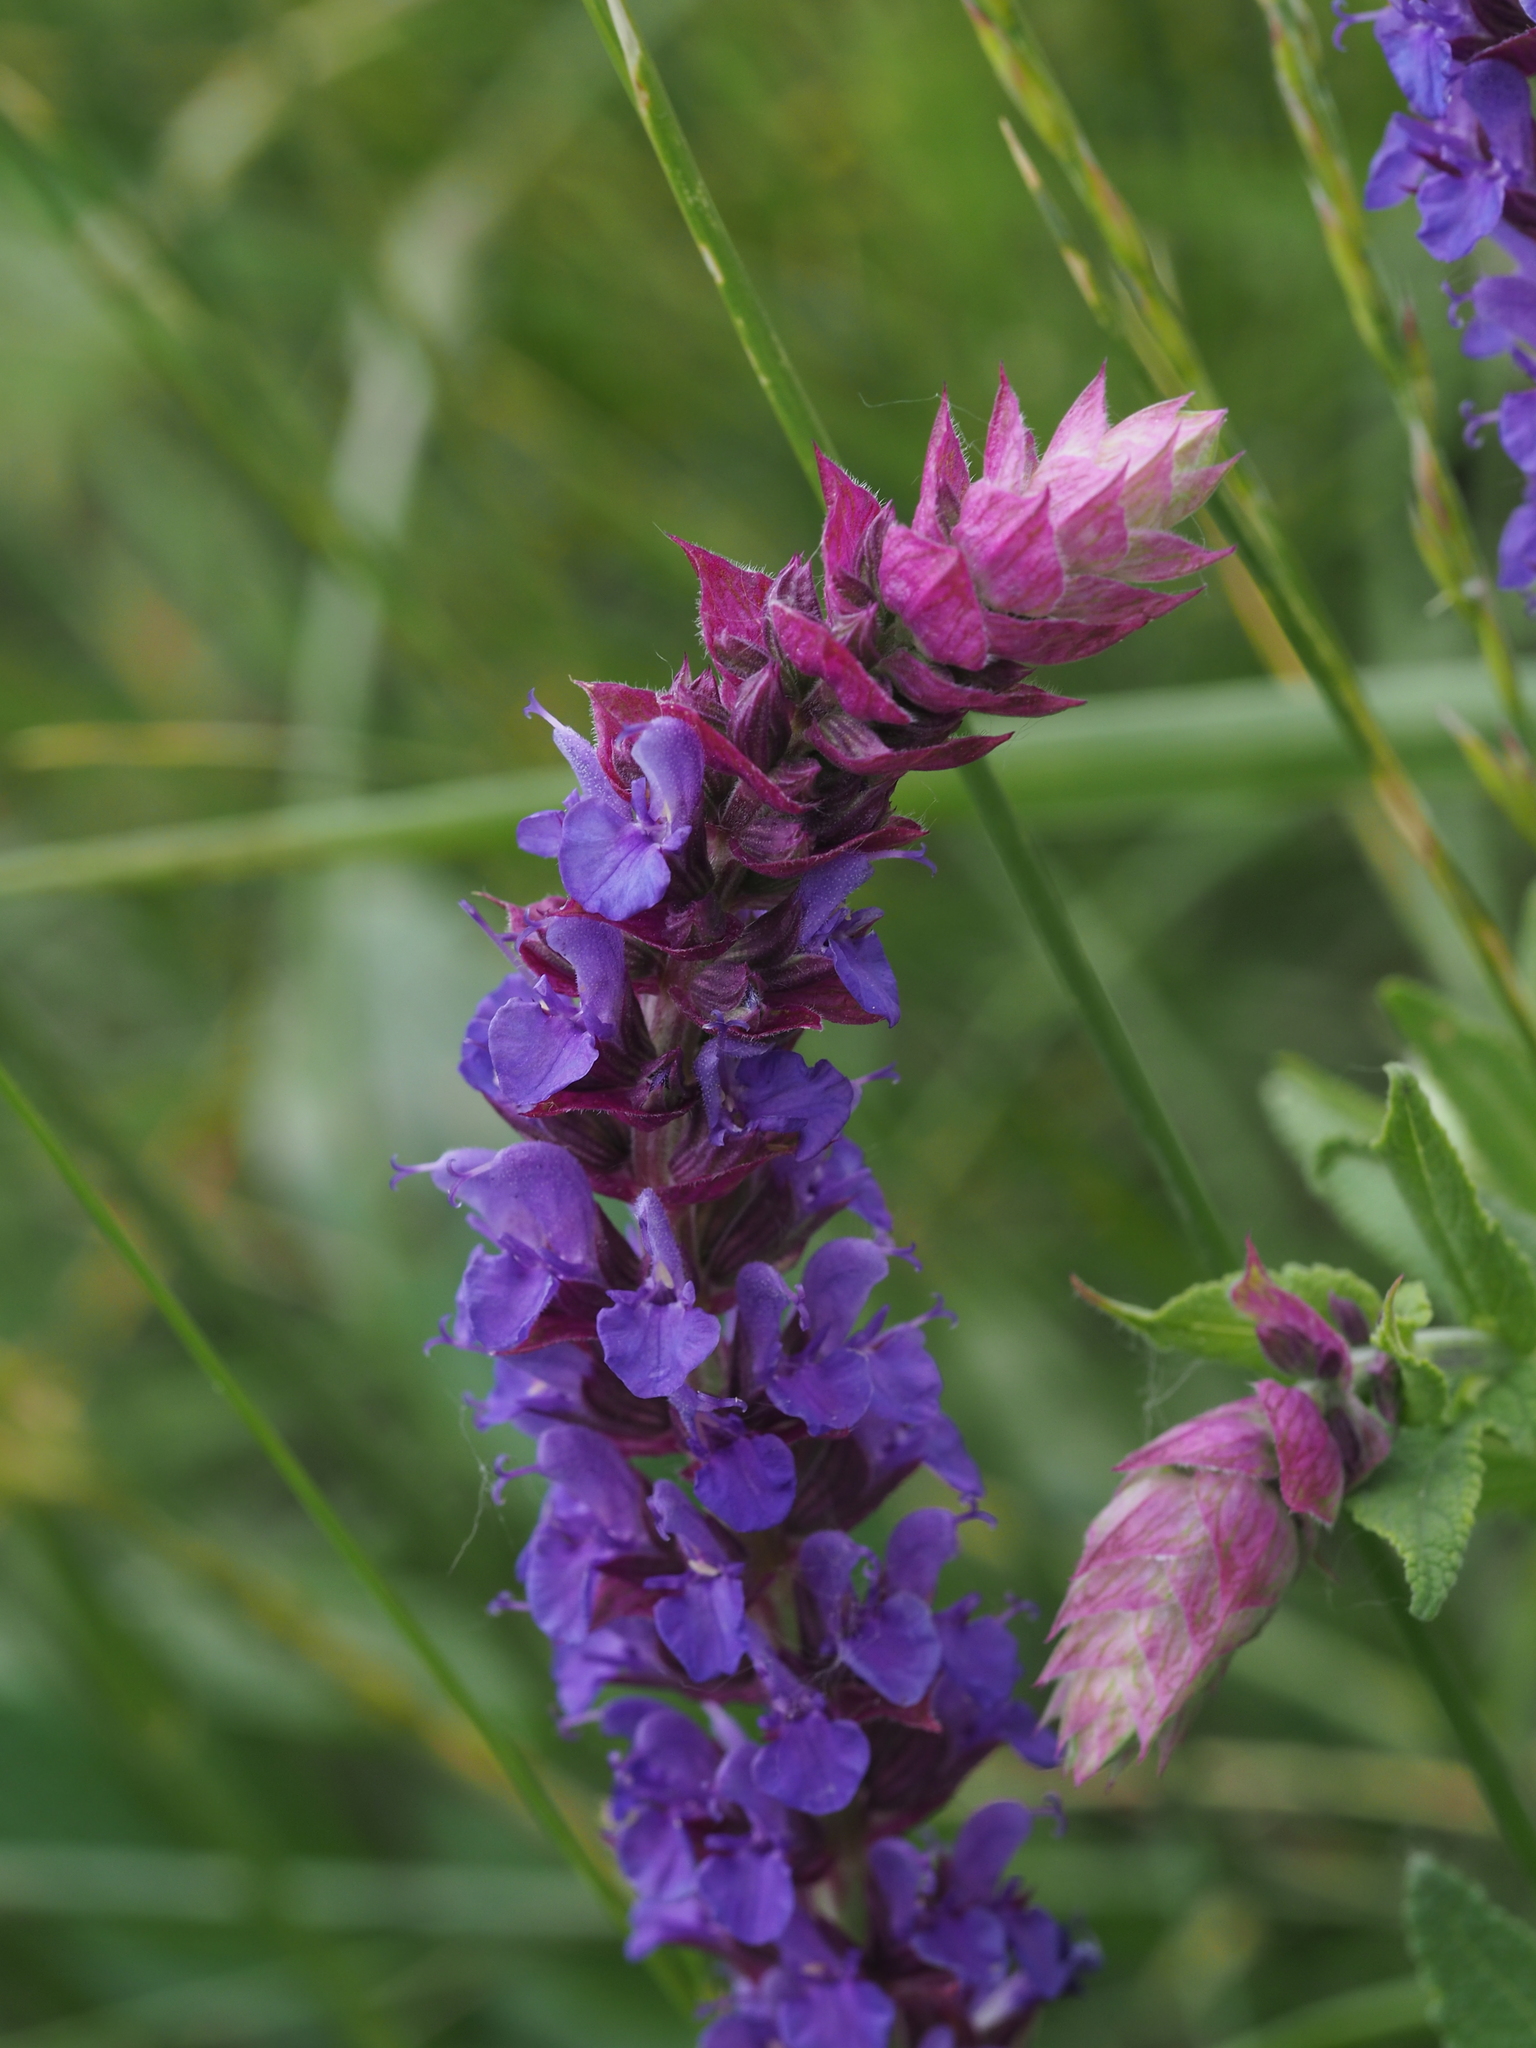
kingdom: Plantae
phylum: Tracheophyta
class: Magnoliopsida
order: Lamiales
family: Lamiaceae
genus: Salvia
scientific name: Salvia nemorosa
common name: Balkan clary
